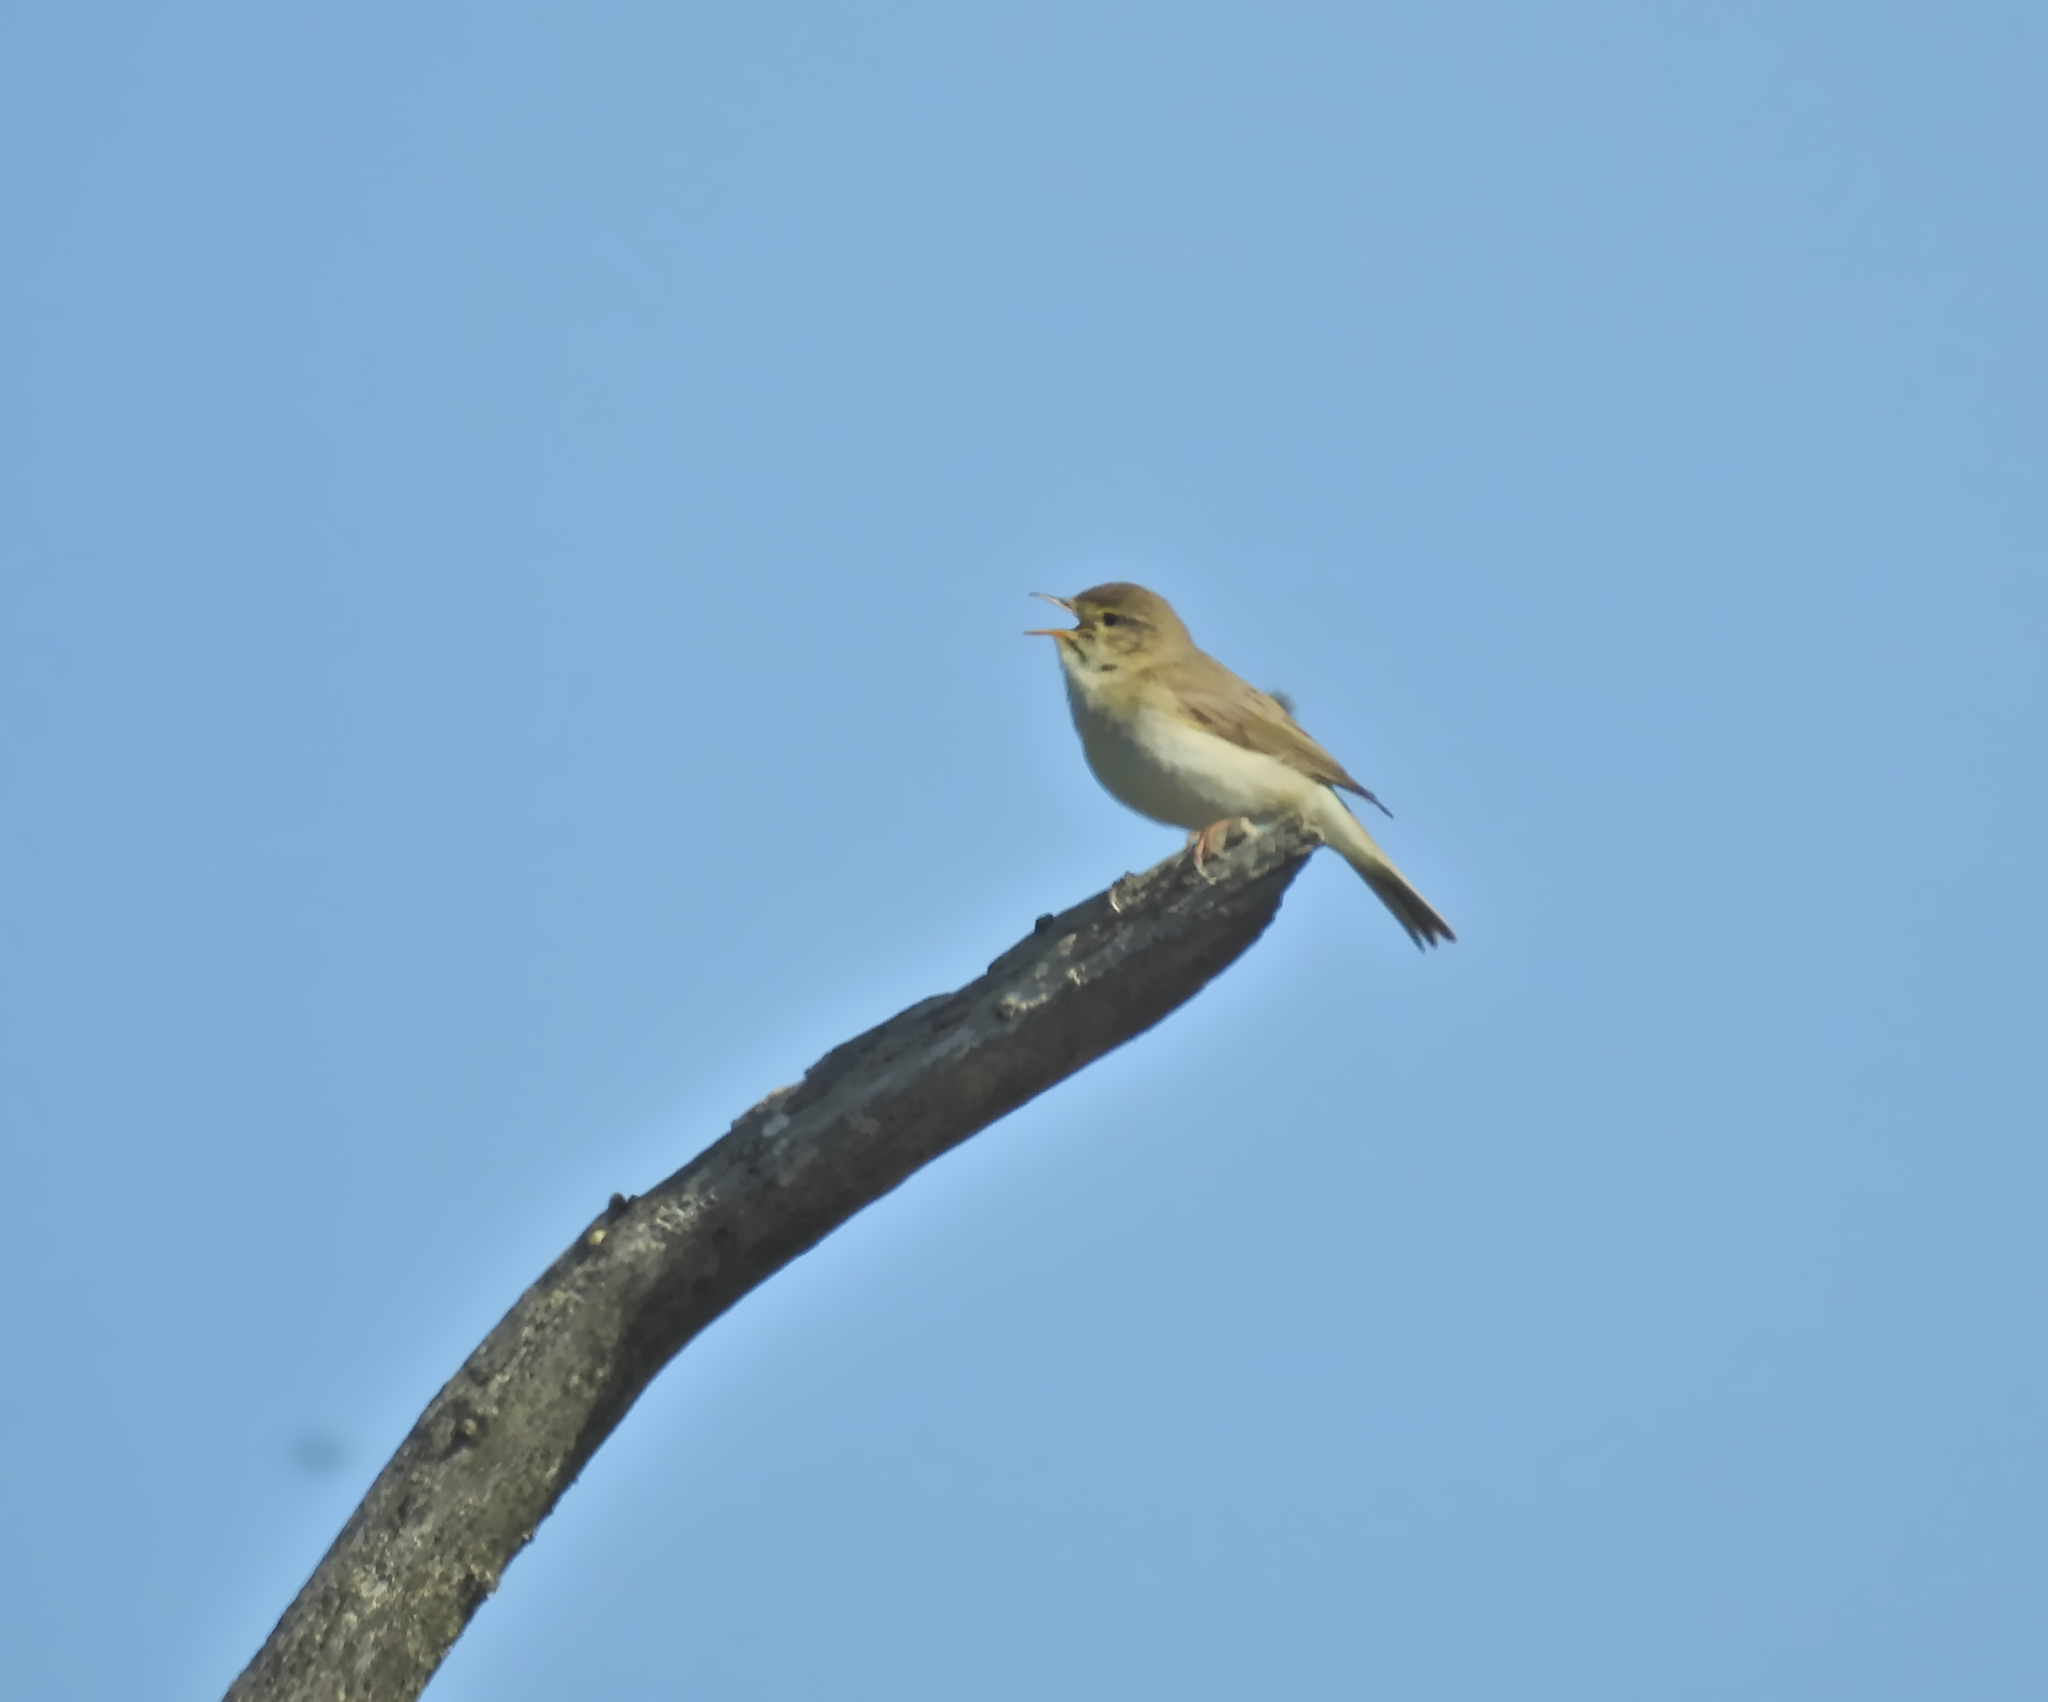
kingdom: Animalia
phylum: Chordata
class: Aves
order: Passeriformes
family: Phylloscopidae
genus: Phylloscopus
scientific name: Phylloscopus trochilus
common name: Willow warbler
